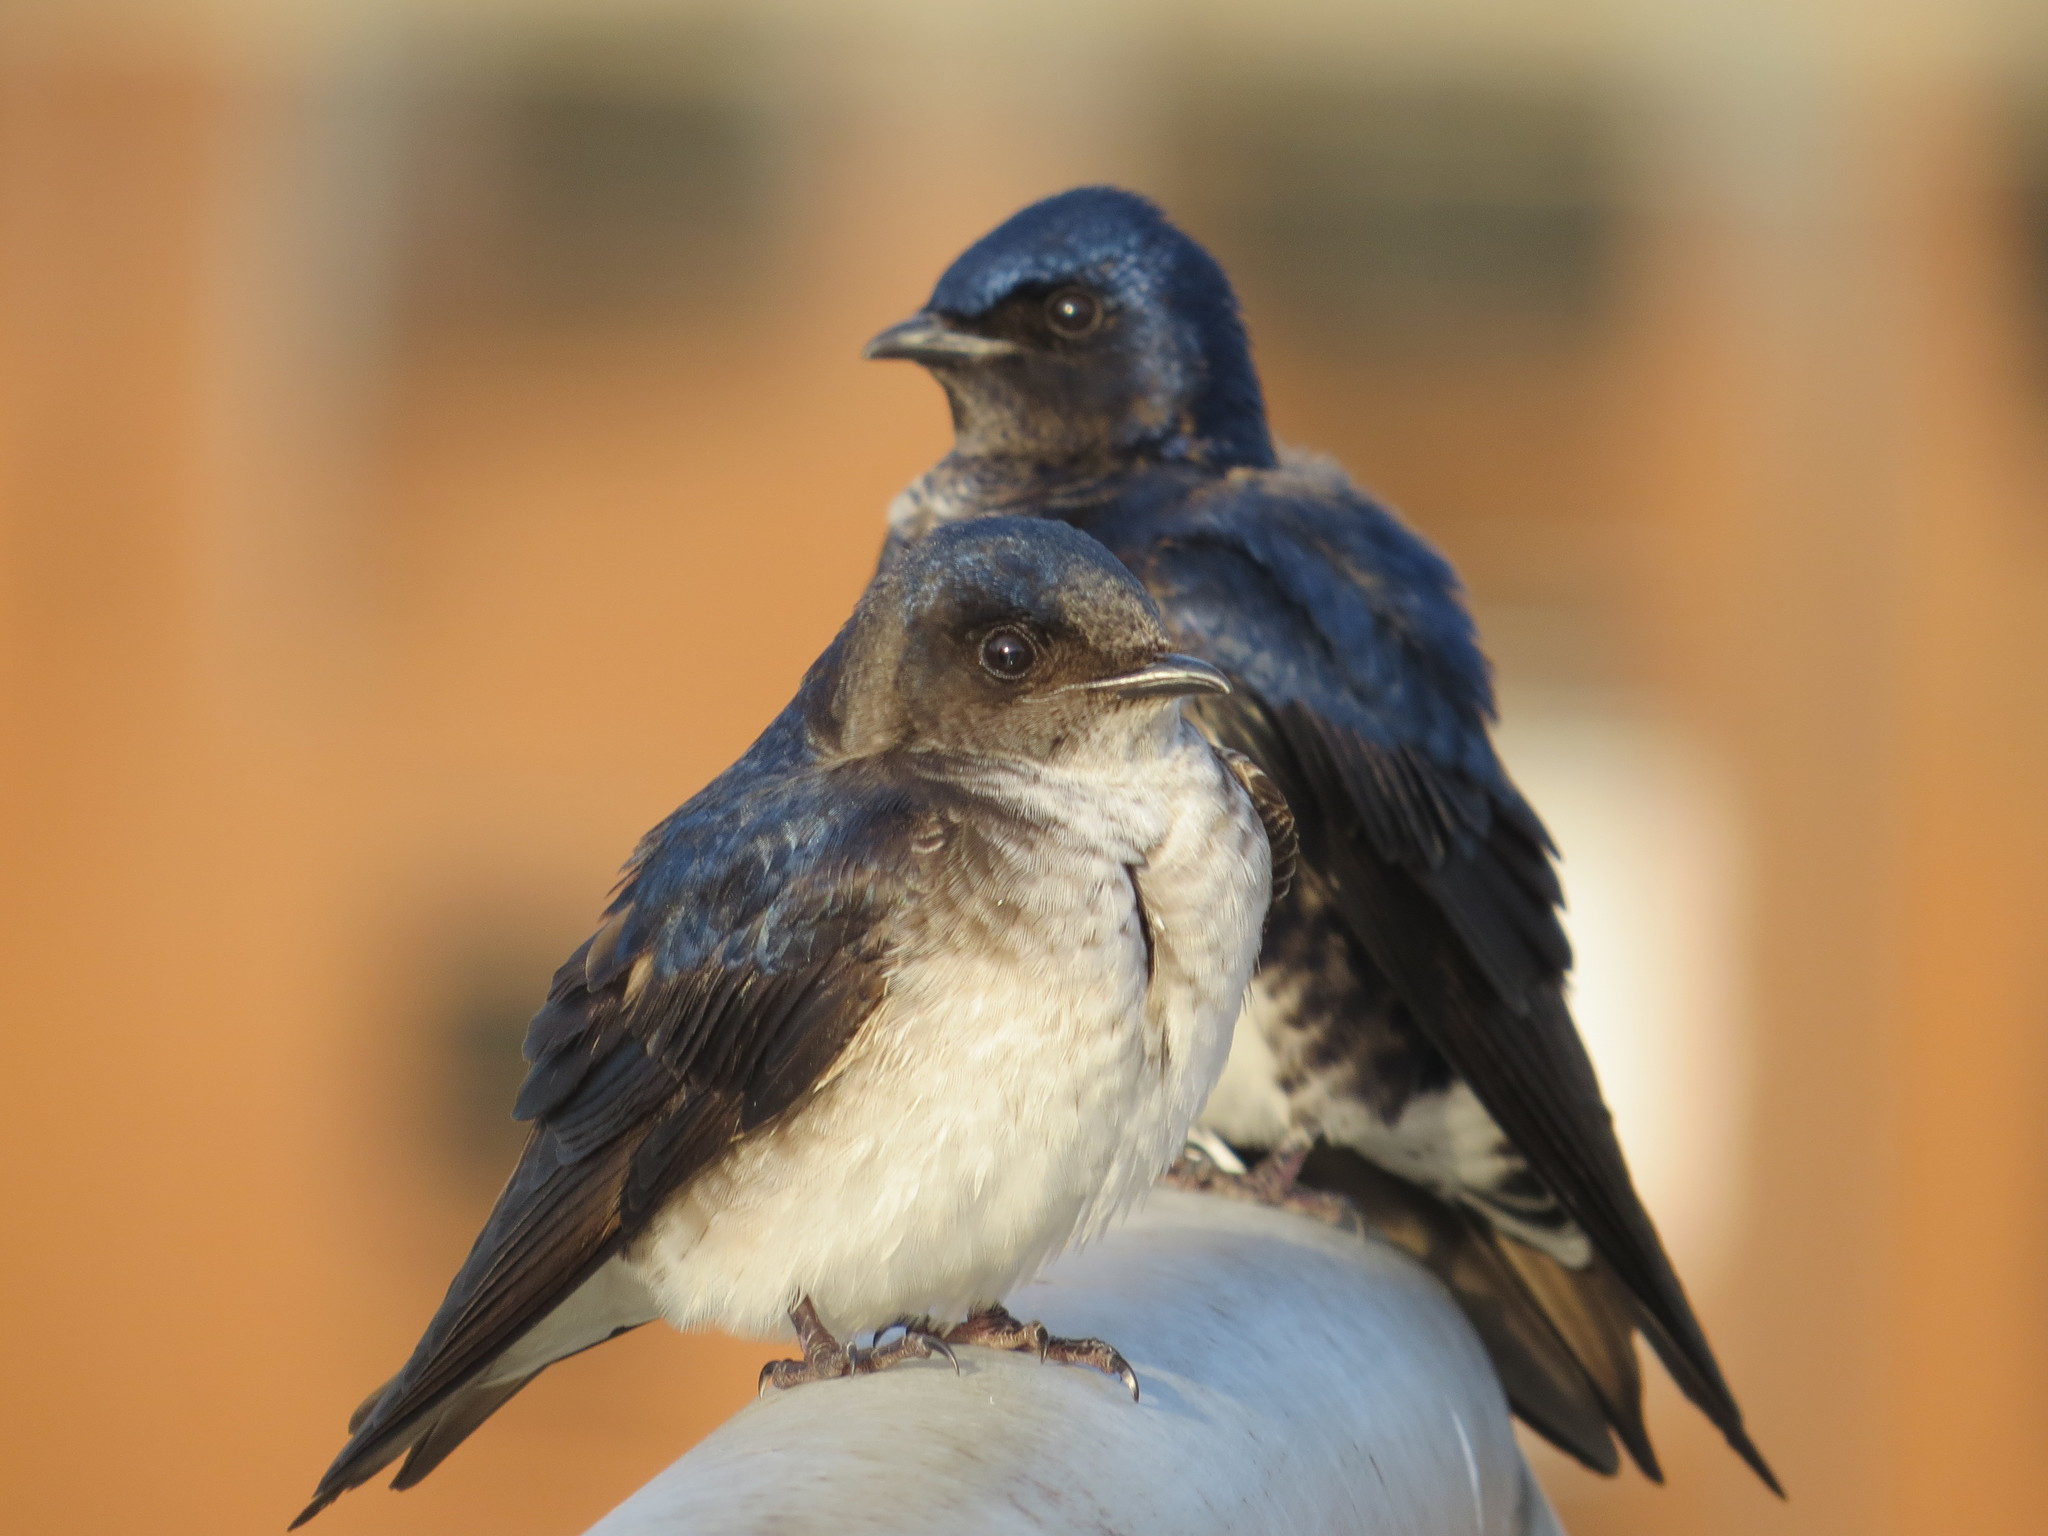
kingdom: Animalia
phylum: Chordata
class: Aves
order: Passeriformes
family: Hirundinidae
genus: Progne
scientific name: Progne chalybea
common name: Grey-breasted martin
